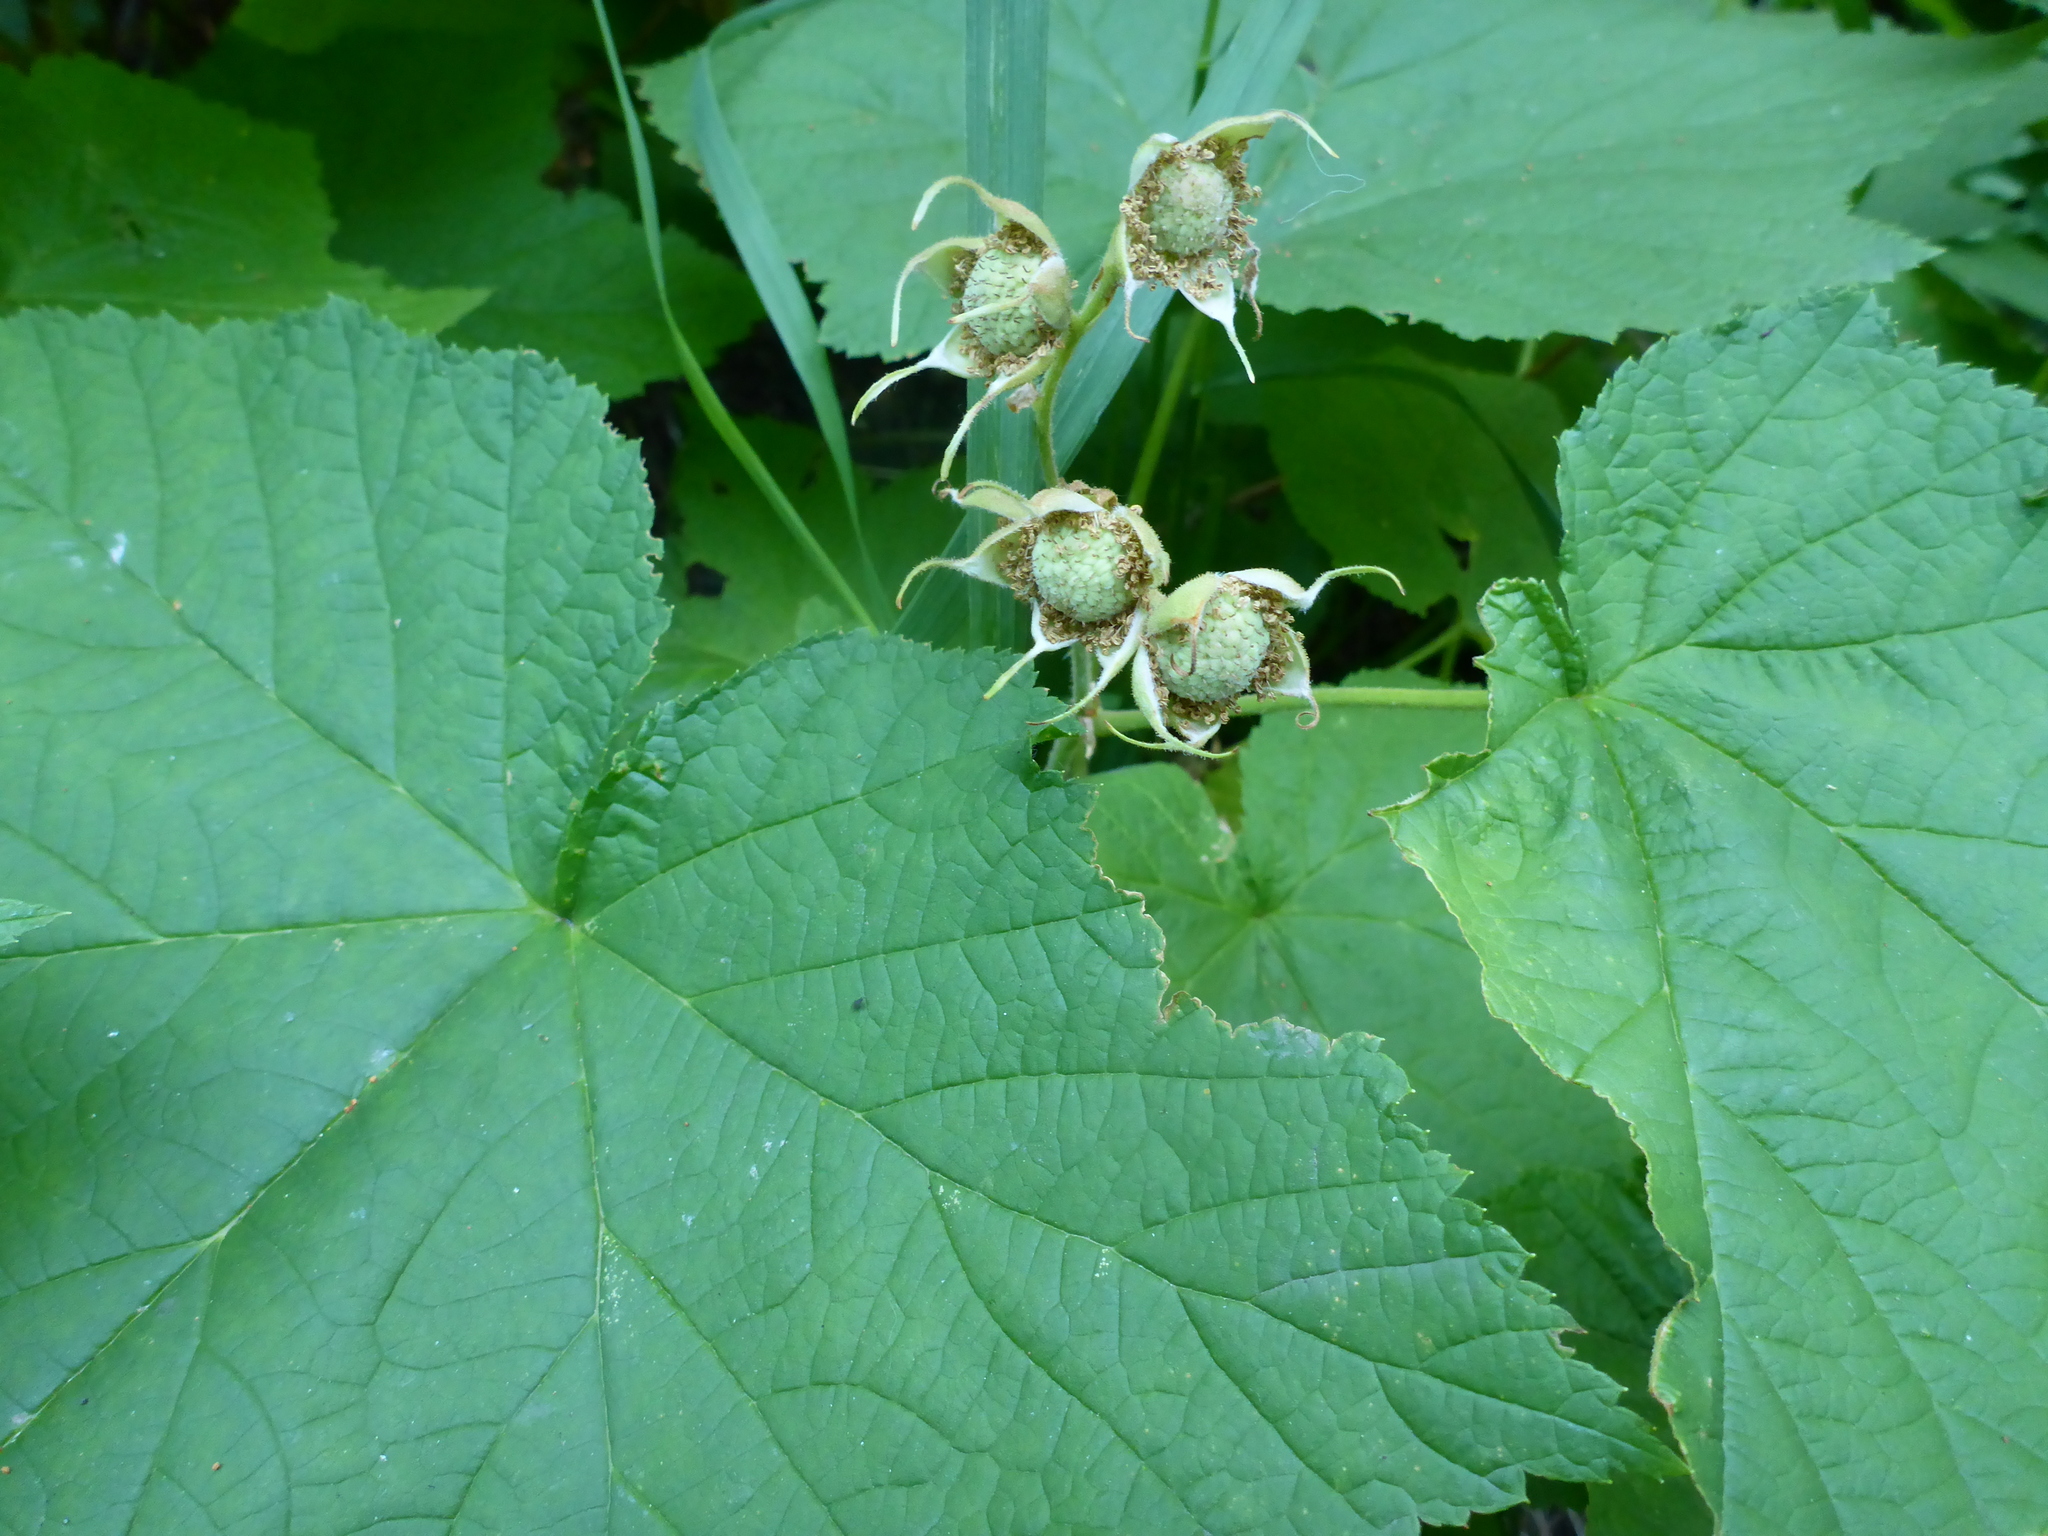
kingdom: Plantae
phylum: Tracheophyta
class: Magnoliopsida
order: Rosales
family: Rosaceae
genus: Rubus
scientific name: Rubus parviflorus
